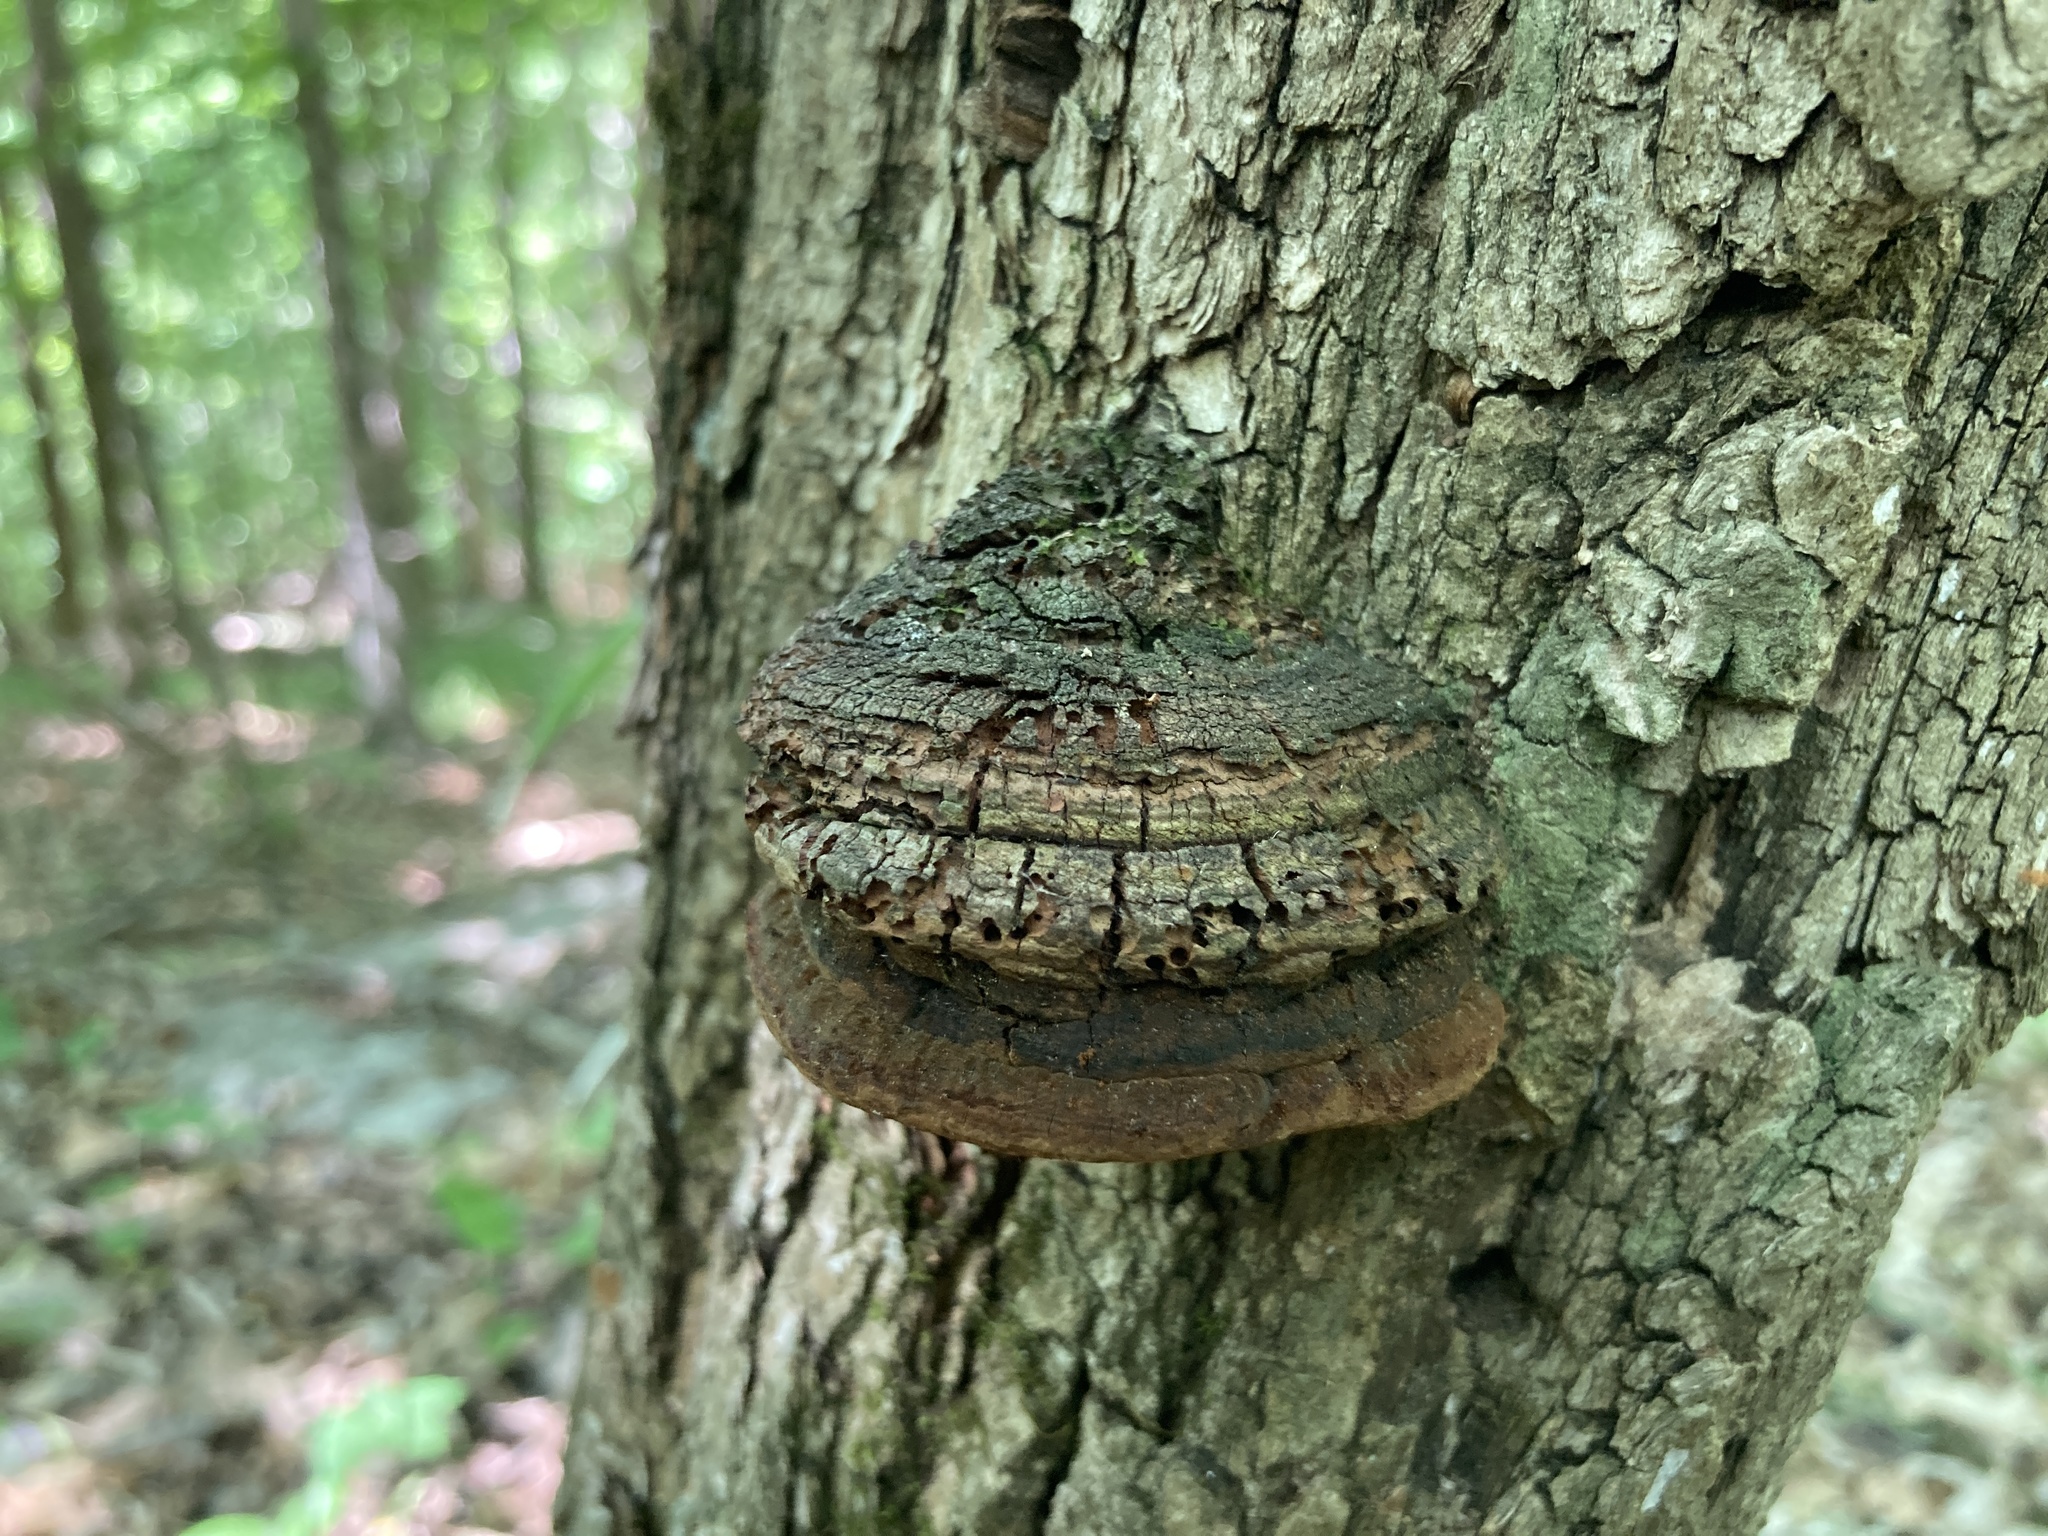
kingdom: Fungi
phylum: Basidiomycota
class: Agaricomycetes
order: Hymenochaetales
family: Hymenochaetaceae
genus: Fomitiporia
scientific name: Fomitiporia robusta
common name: Robust bracket
